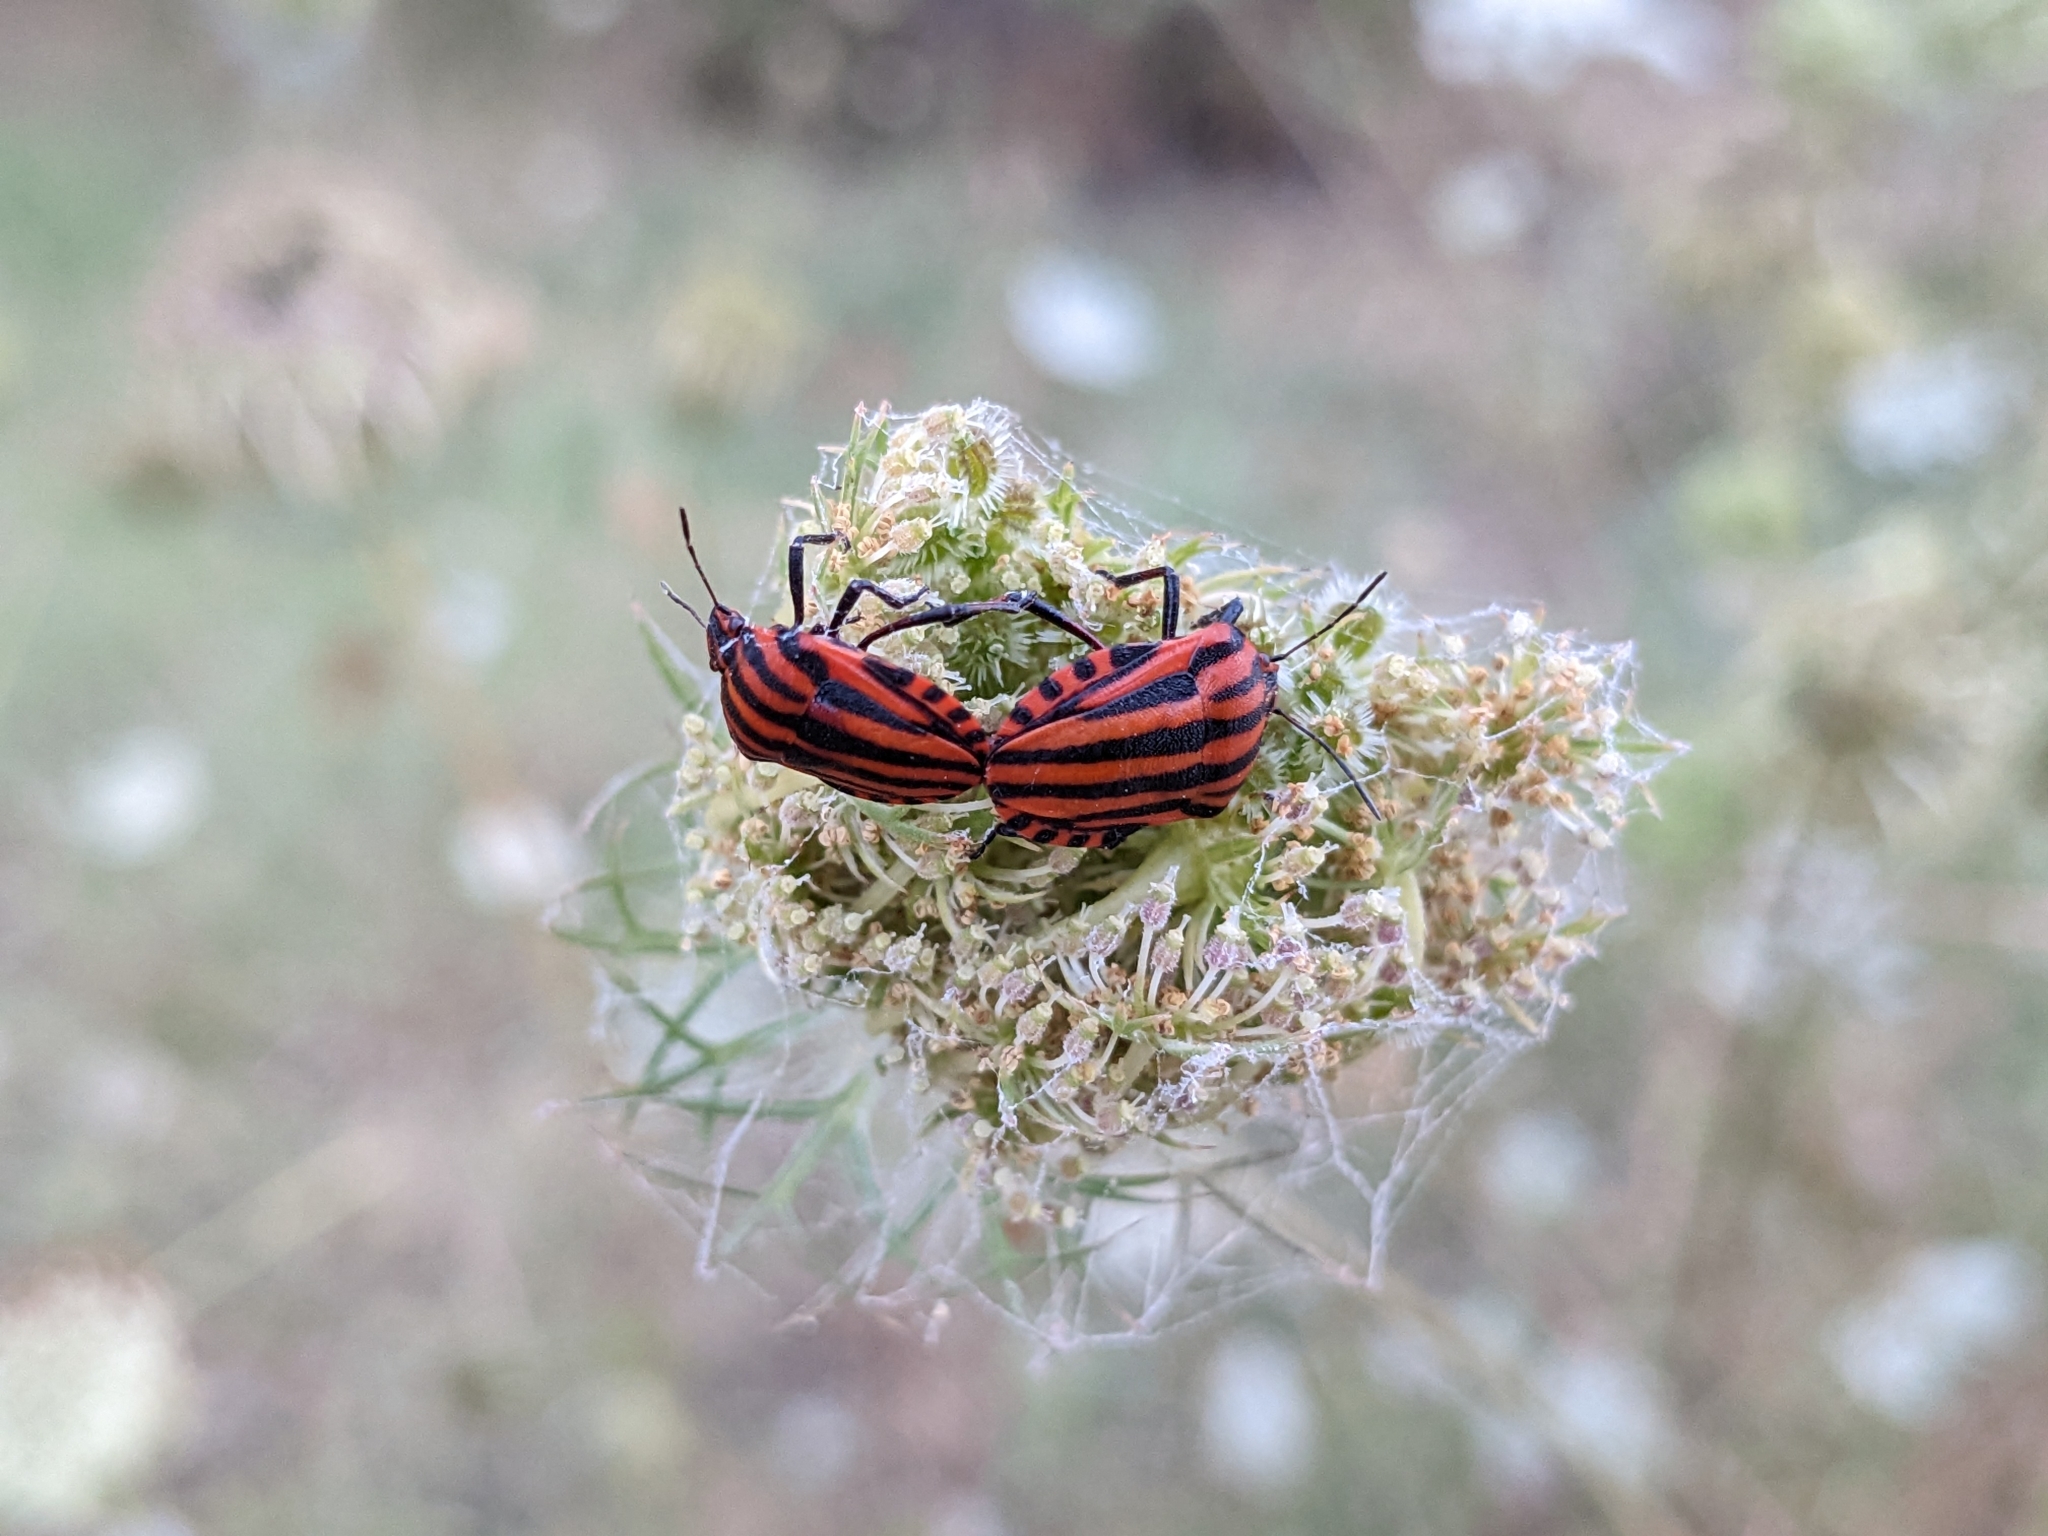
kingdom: Animalia
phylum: Arthropoda
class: Insecta
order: Hemiptera
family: Pentatomidae
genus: Graphosoma
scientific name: Graphosoma italicum
